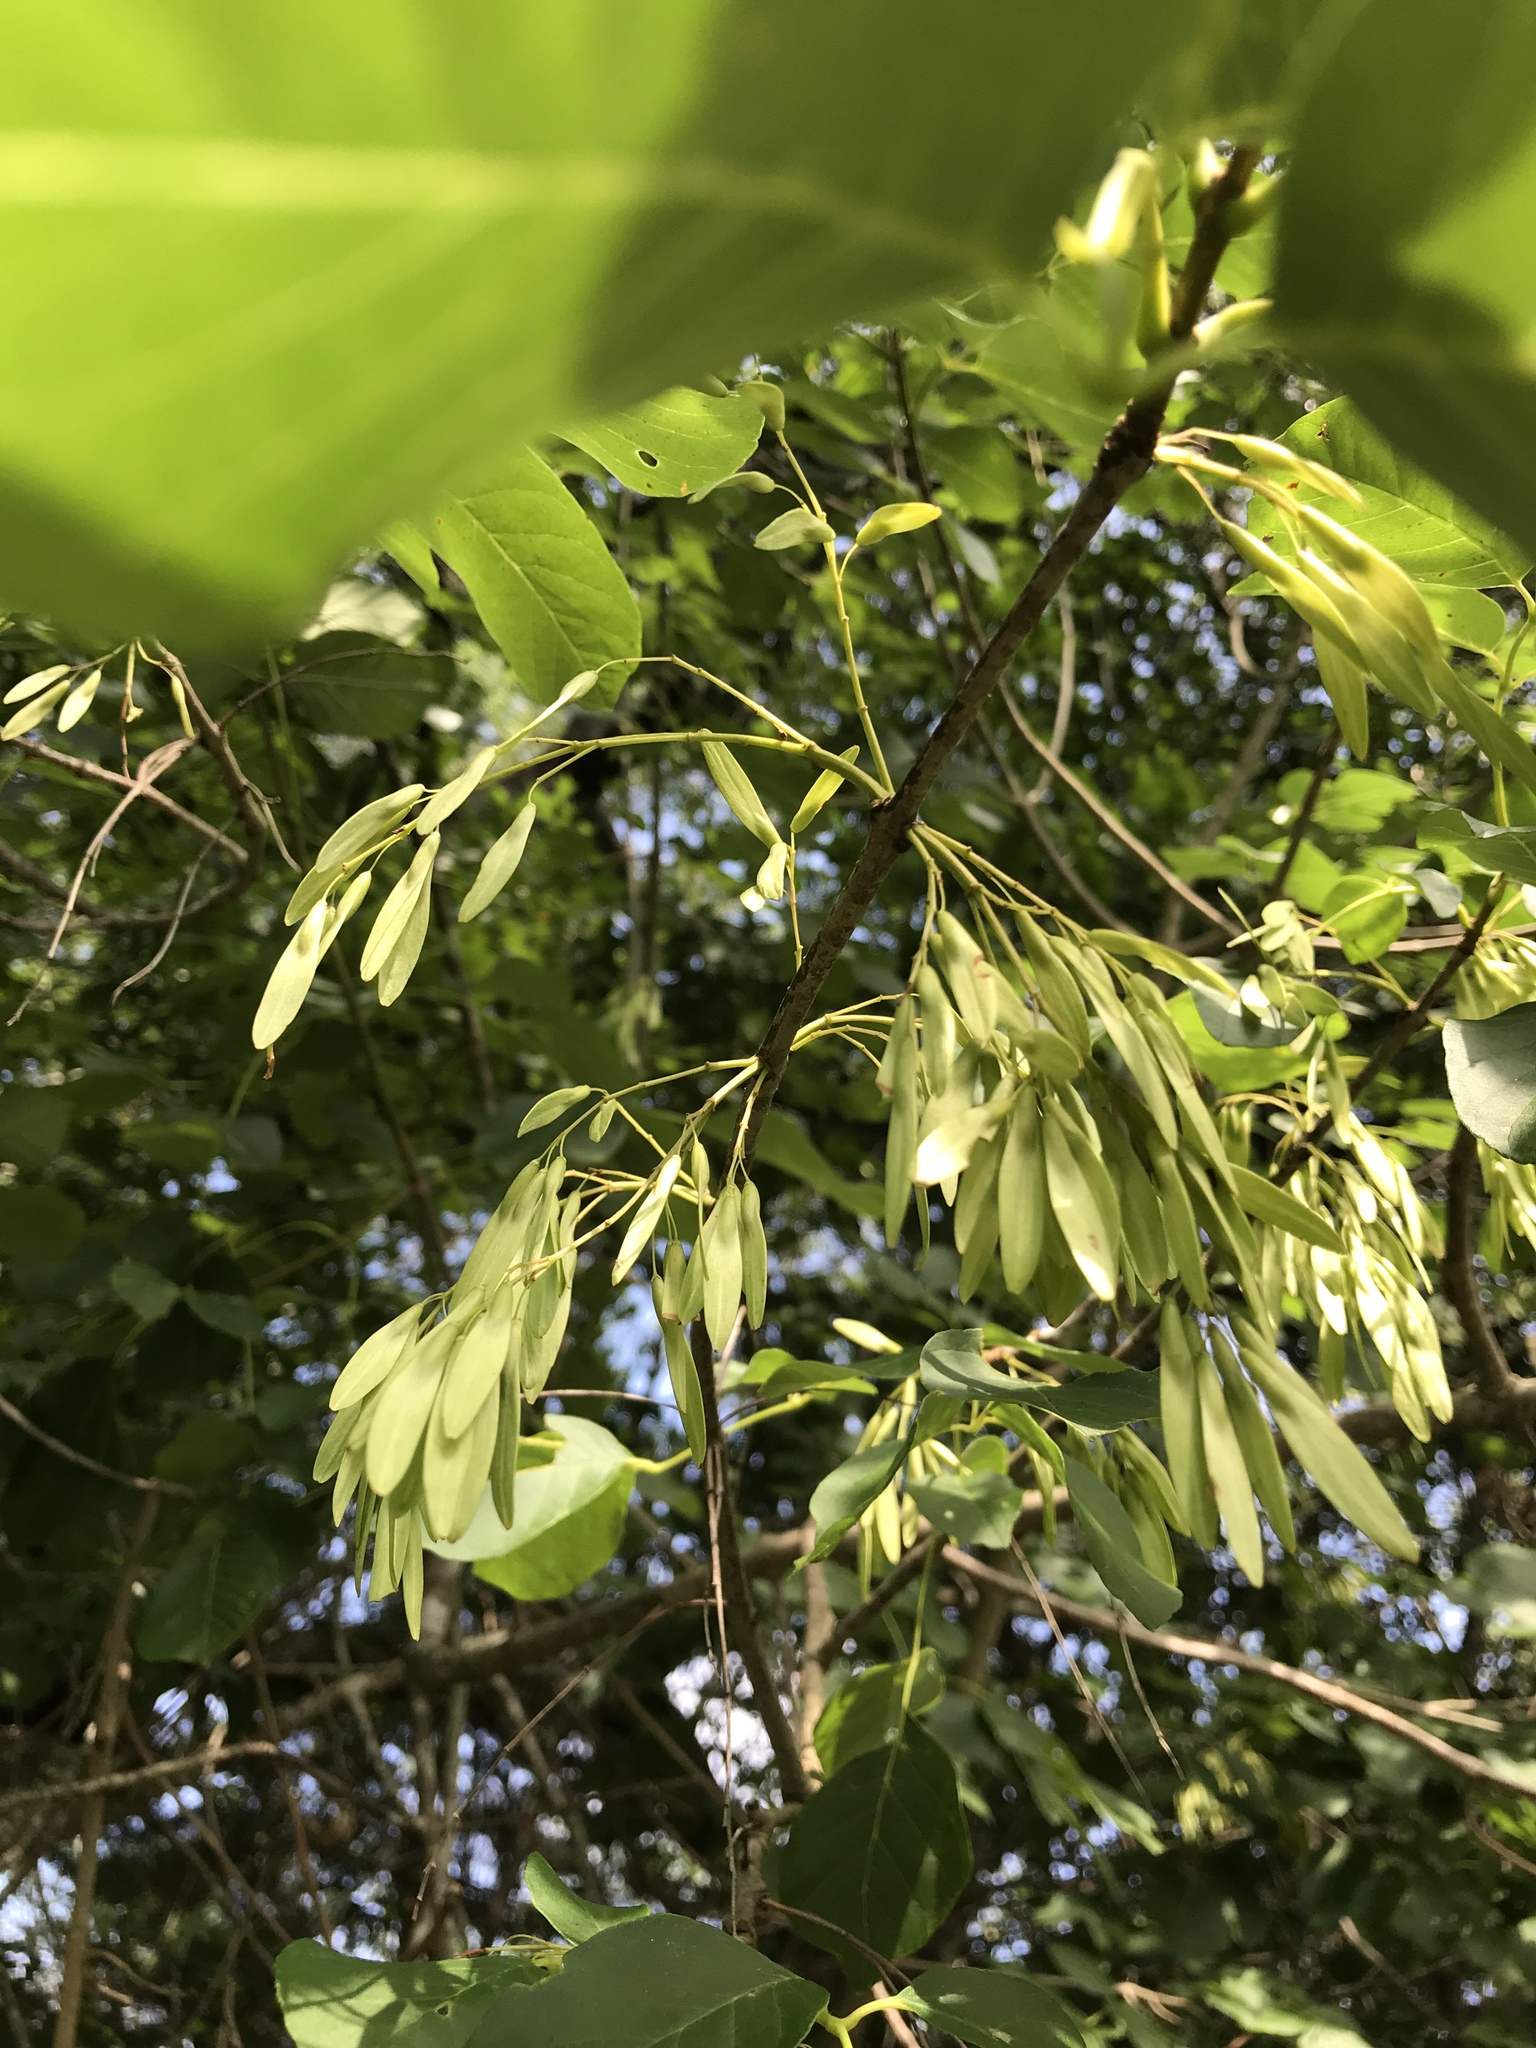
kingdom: Plantae
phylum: Tracheophyta
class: Magnoliopsida
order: Lamiales
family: Oleaceae
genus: Fraxinus
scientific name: Fraxinus albicans
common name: Texas ash
